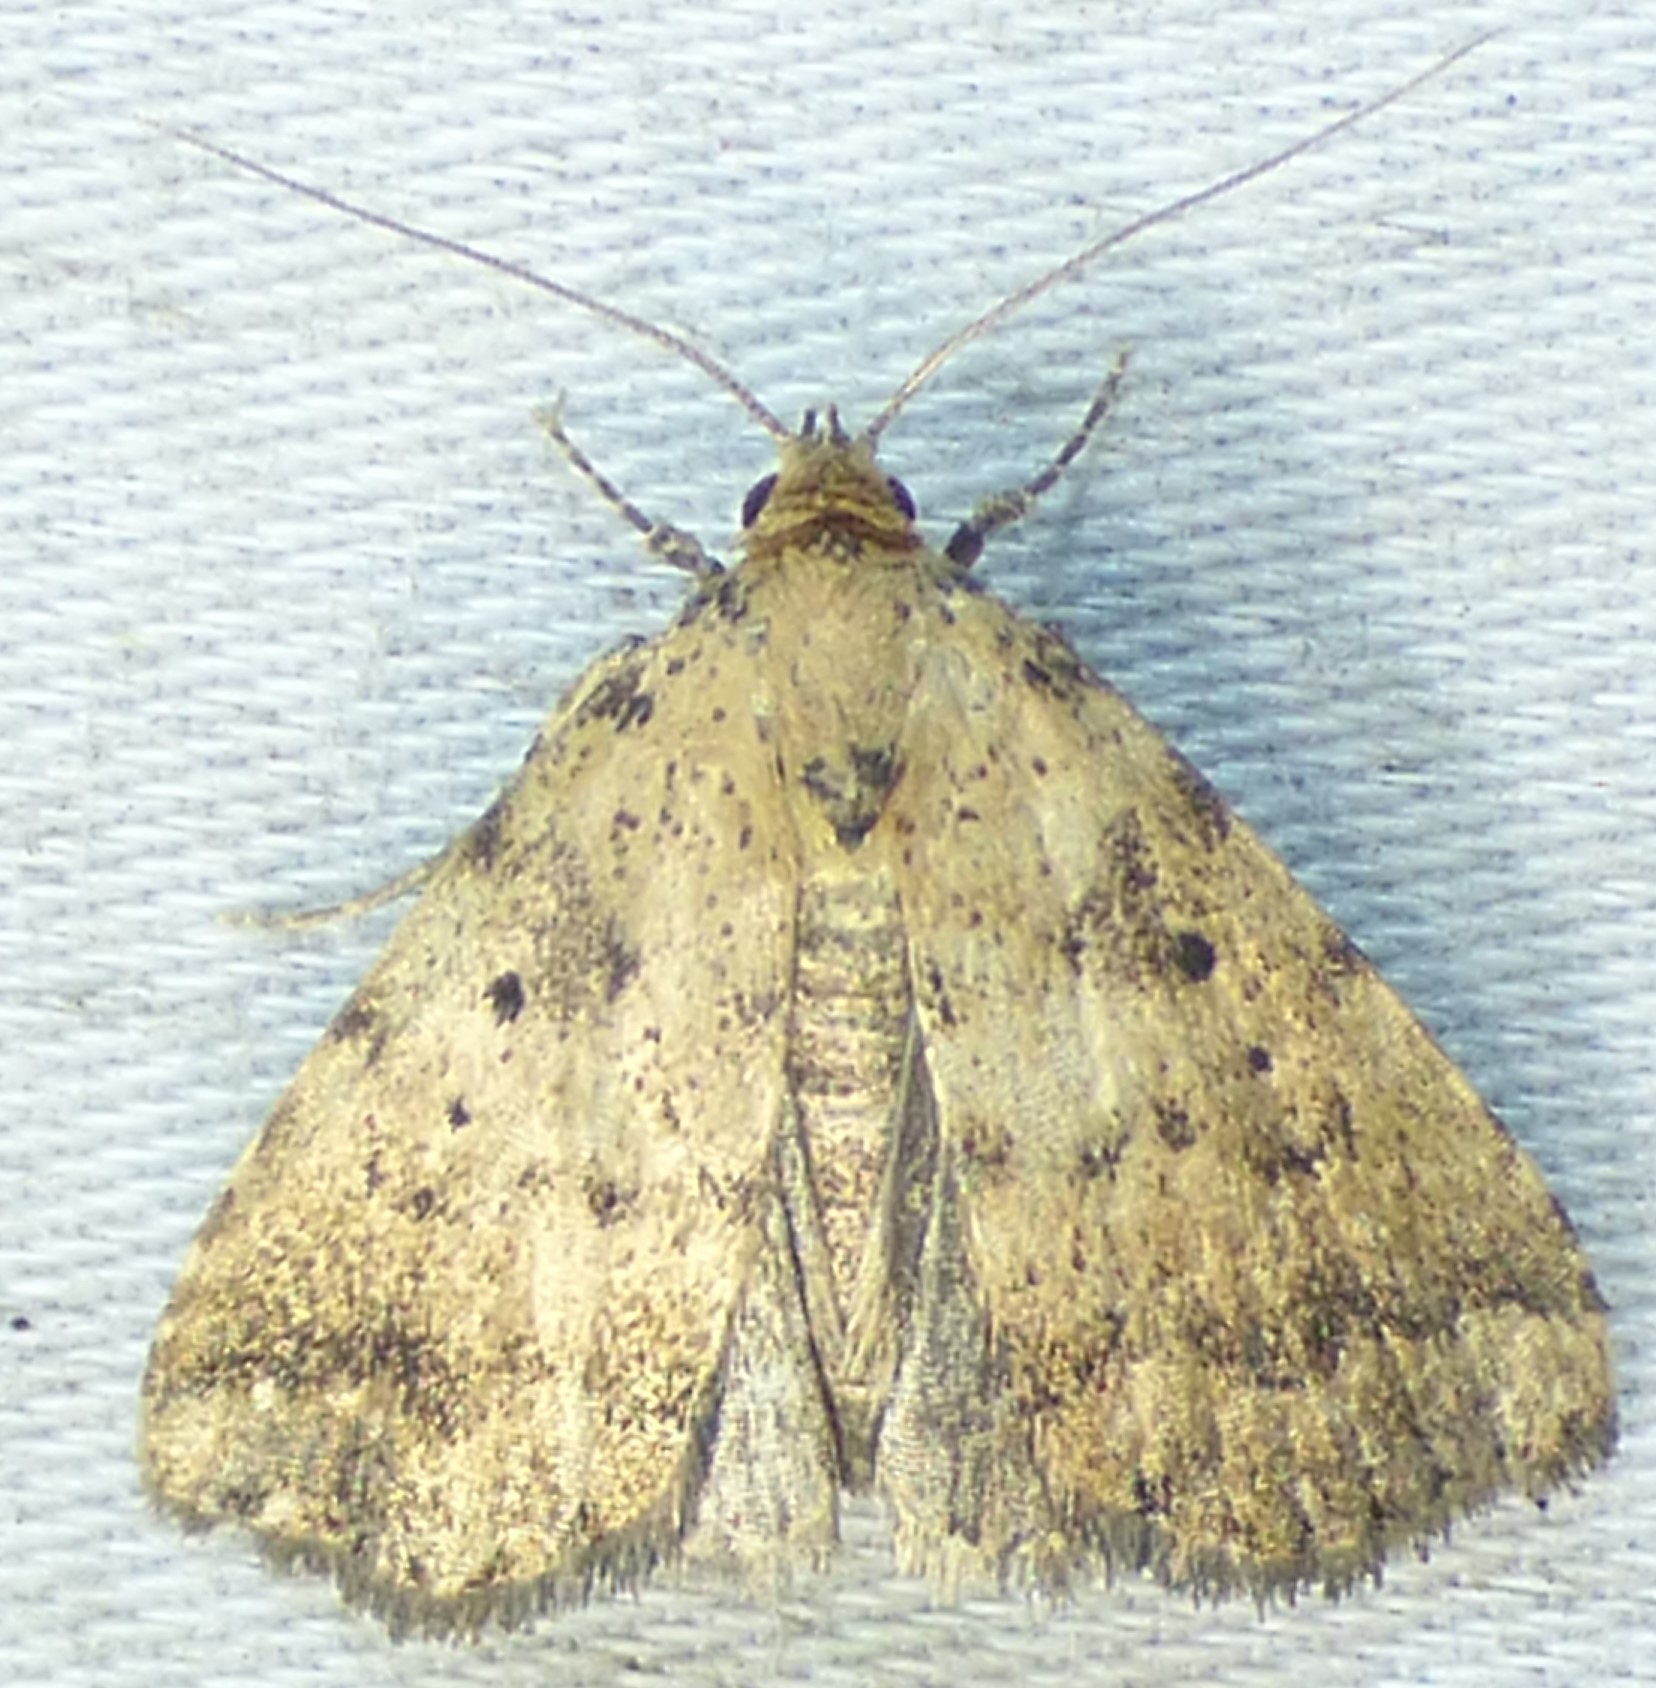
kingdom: Animalia
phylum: Arthropoda
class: Insecta
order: Lepidoptera
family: Erebidae
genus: Arugisa
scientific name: Arugisa lutea
